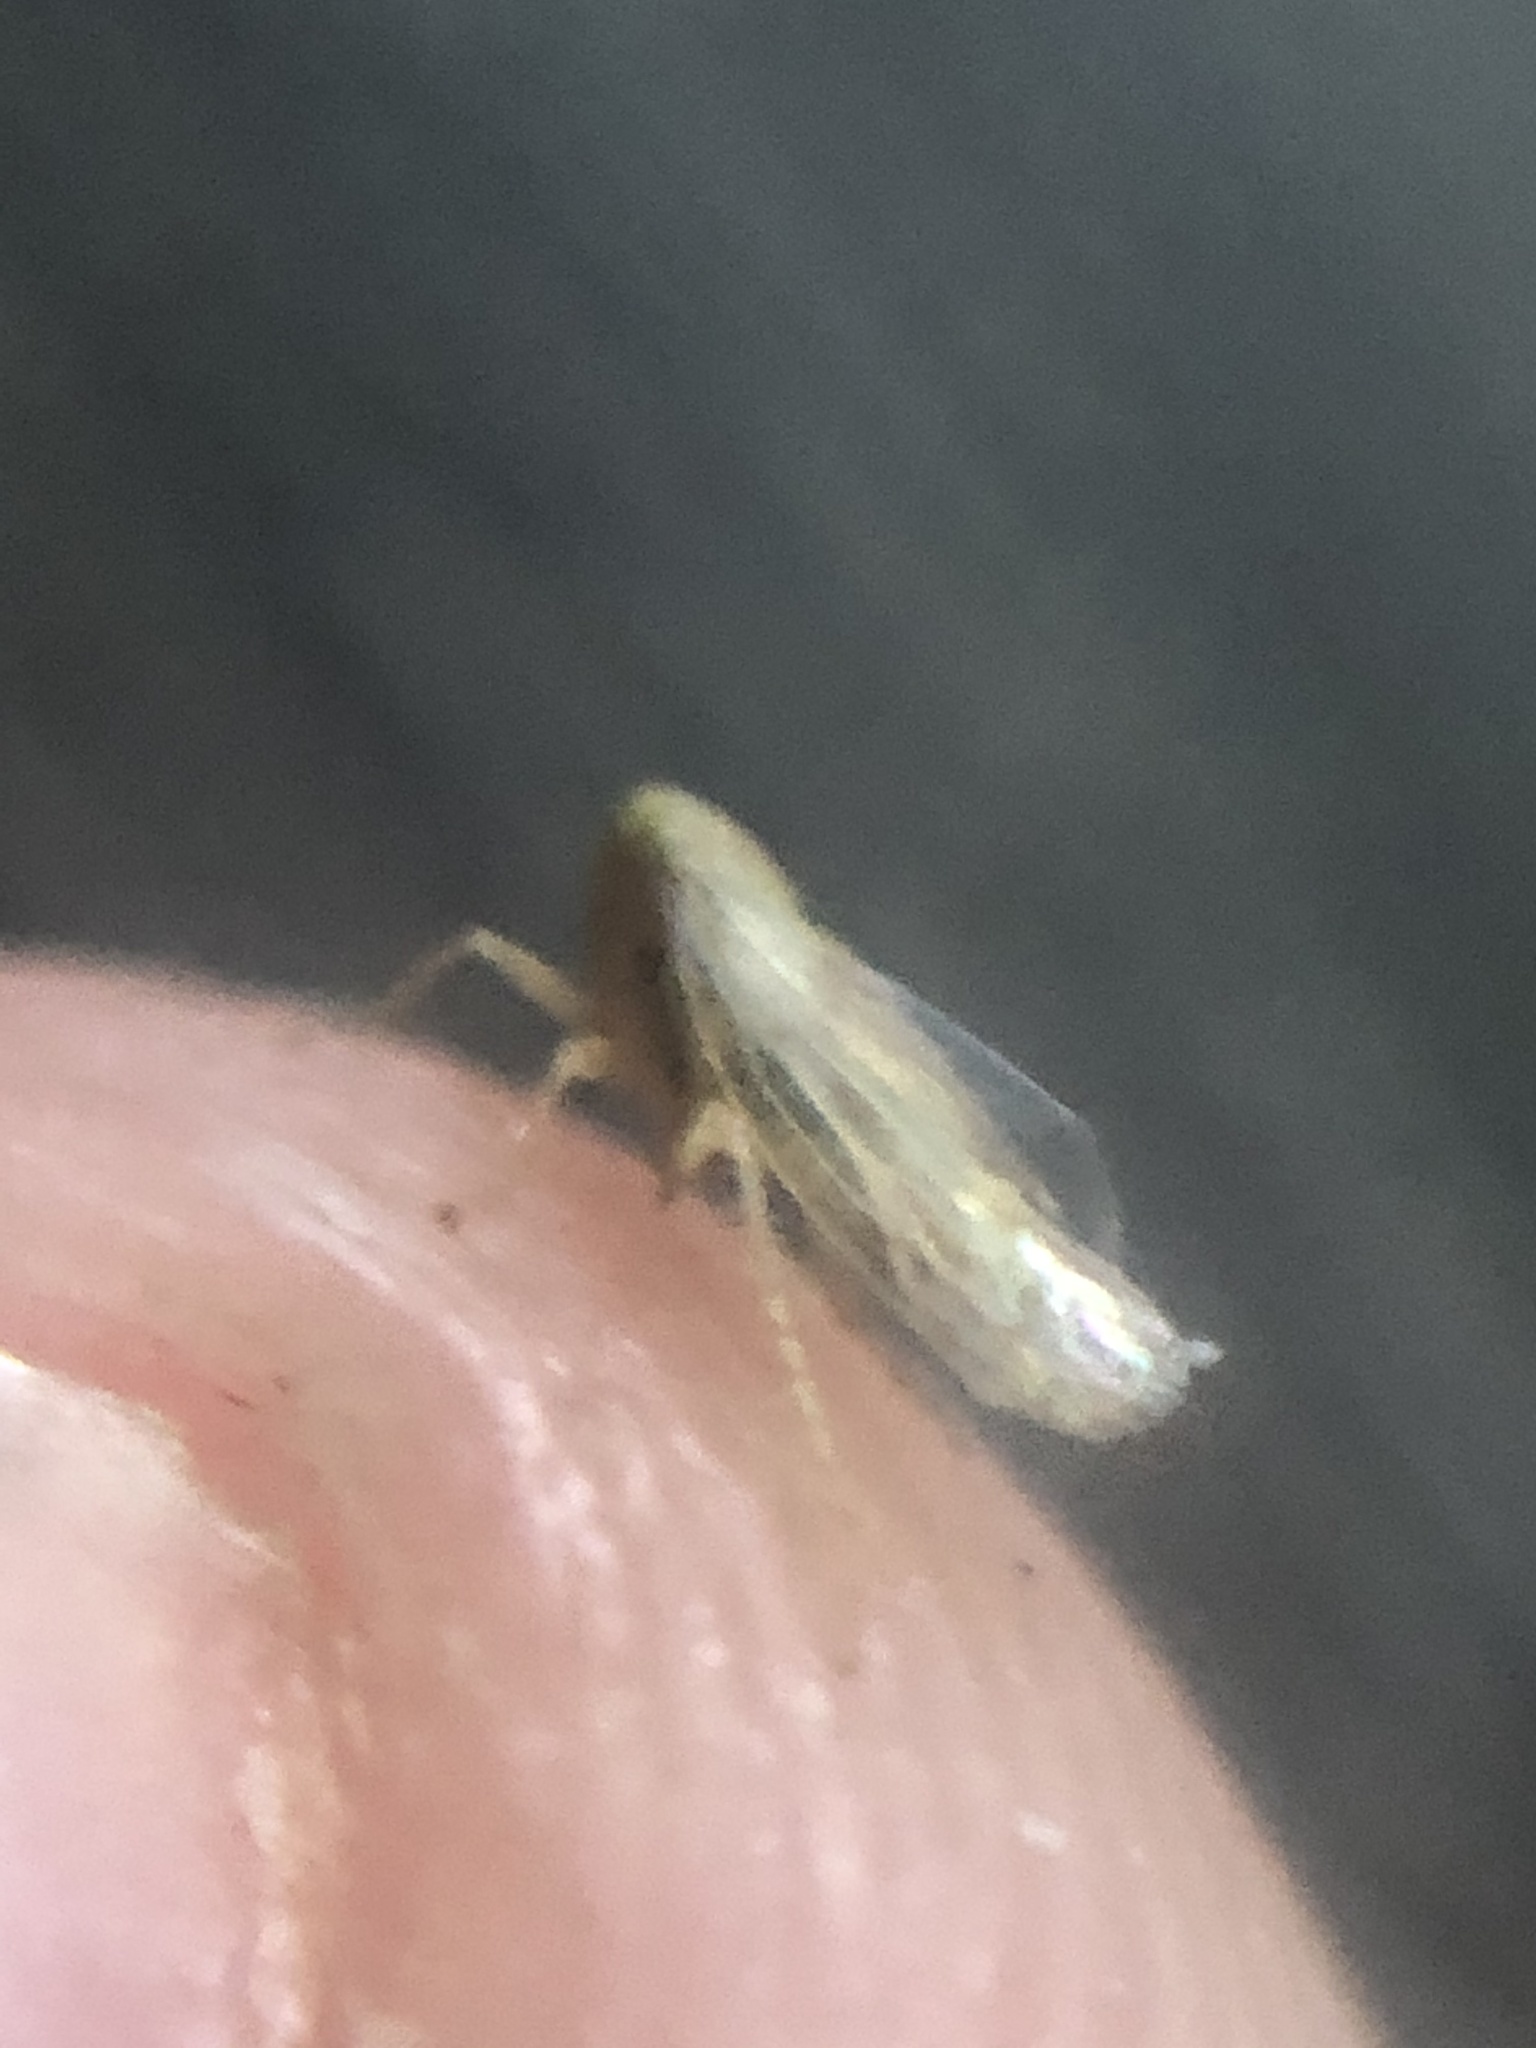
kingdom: Animalia
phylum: Arthropoda
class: Insecta
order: Hemiptera
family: Cicadellidae
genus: Neoaliturus
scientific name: Neoaliturus tenellus
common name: Leafhopper
